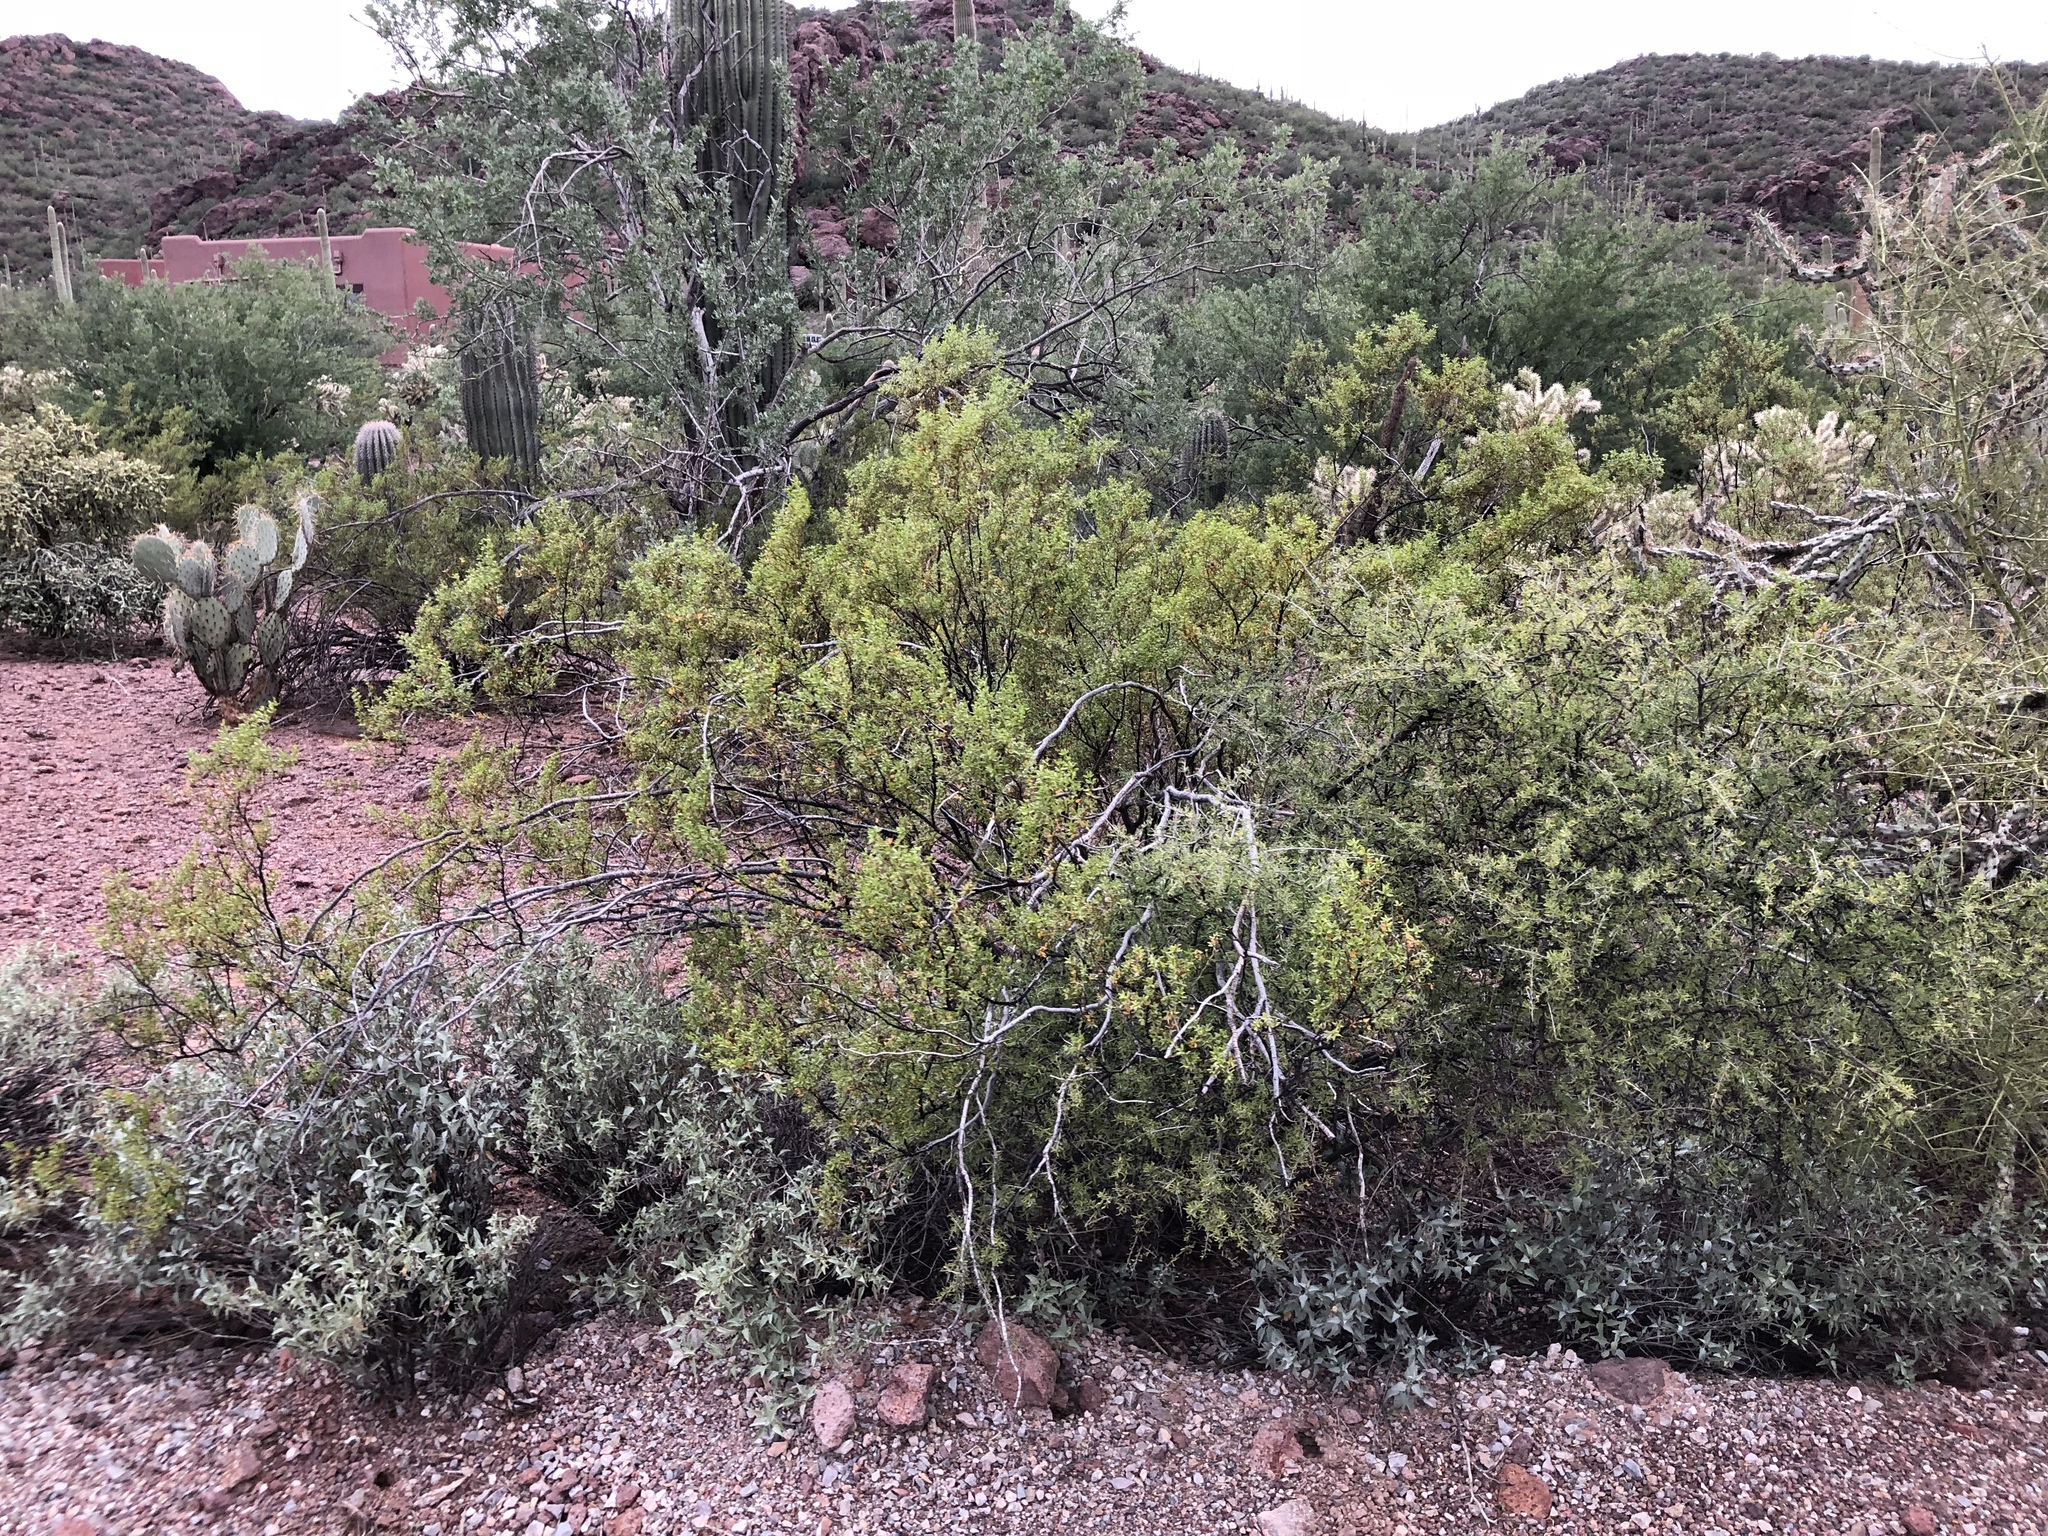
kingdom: Plantae
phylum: Tracheophyta
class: Magnoliopsida
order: Zygophyllales
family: Zygophyllaceae
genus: Larrea
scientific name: Larrea tridentata
